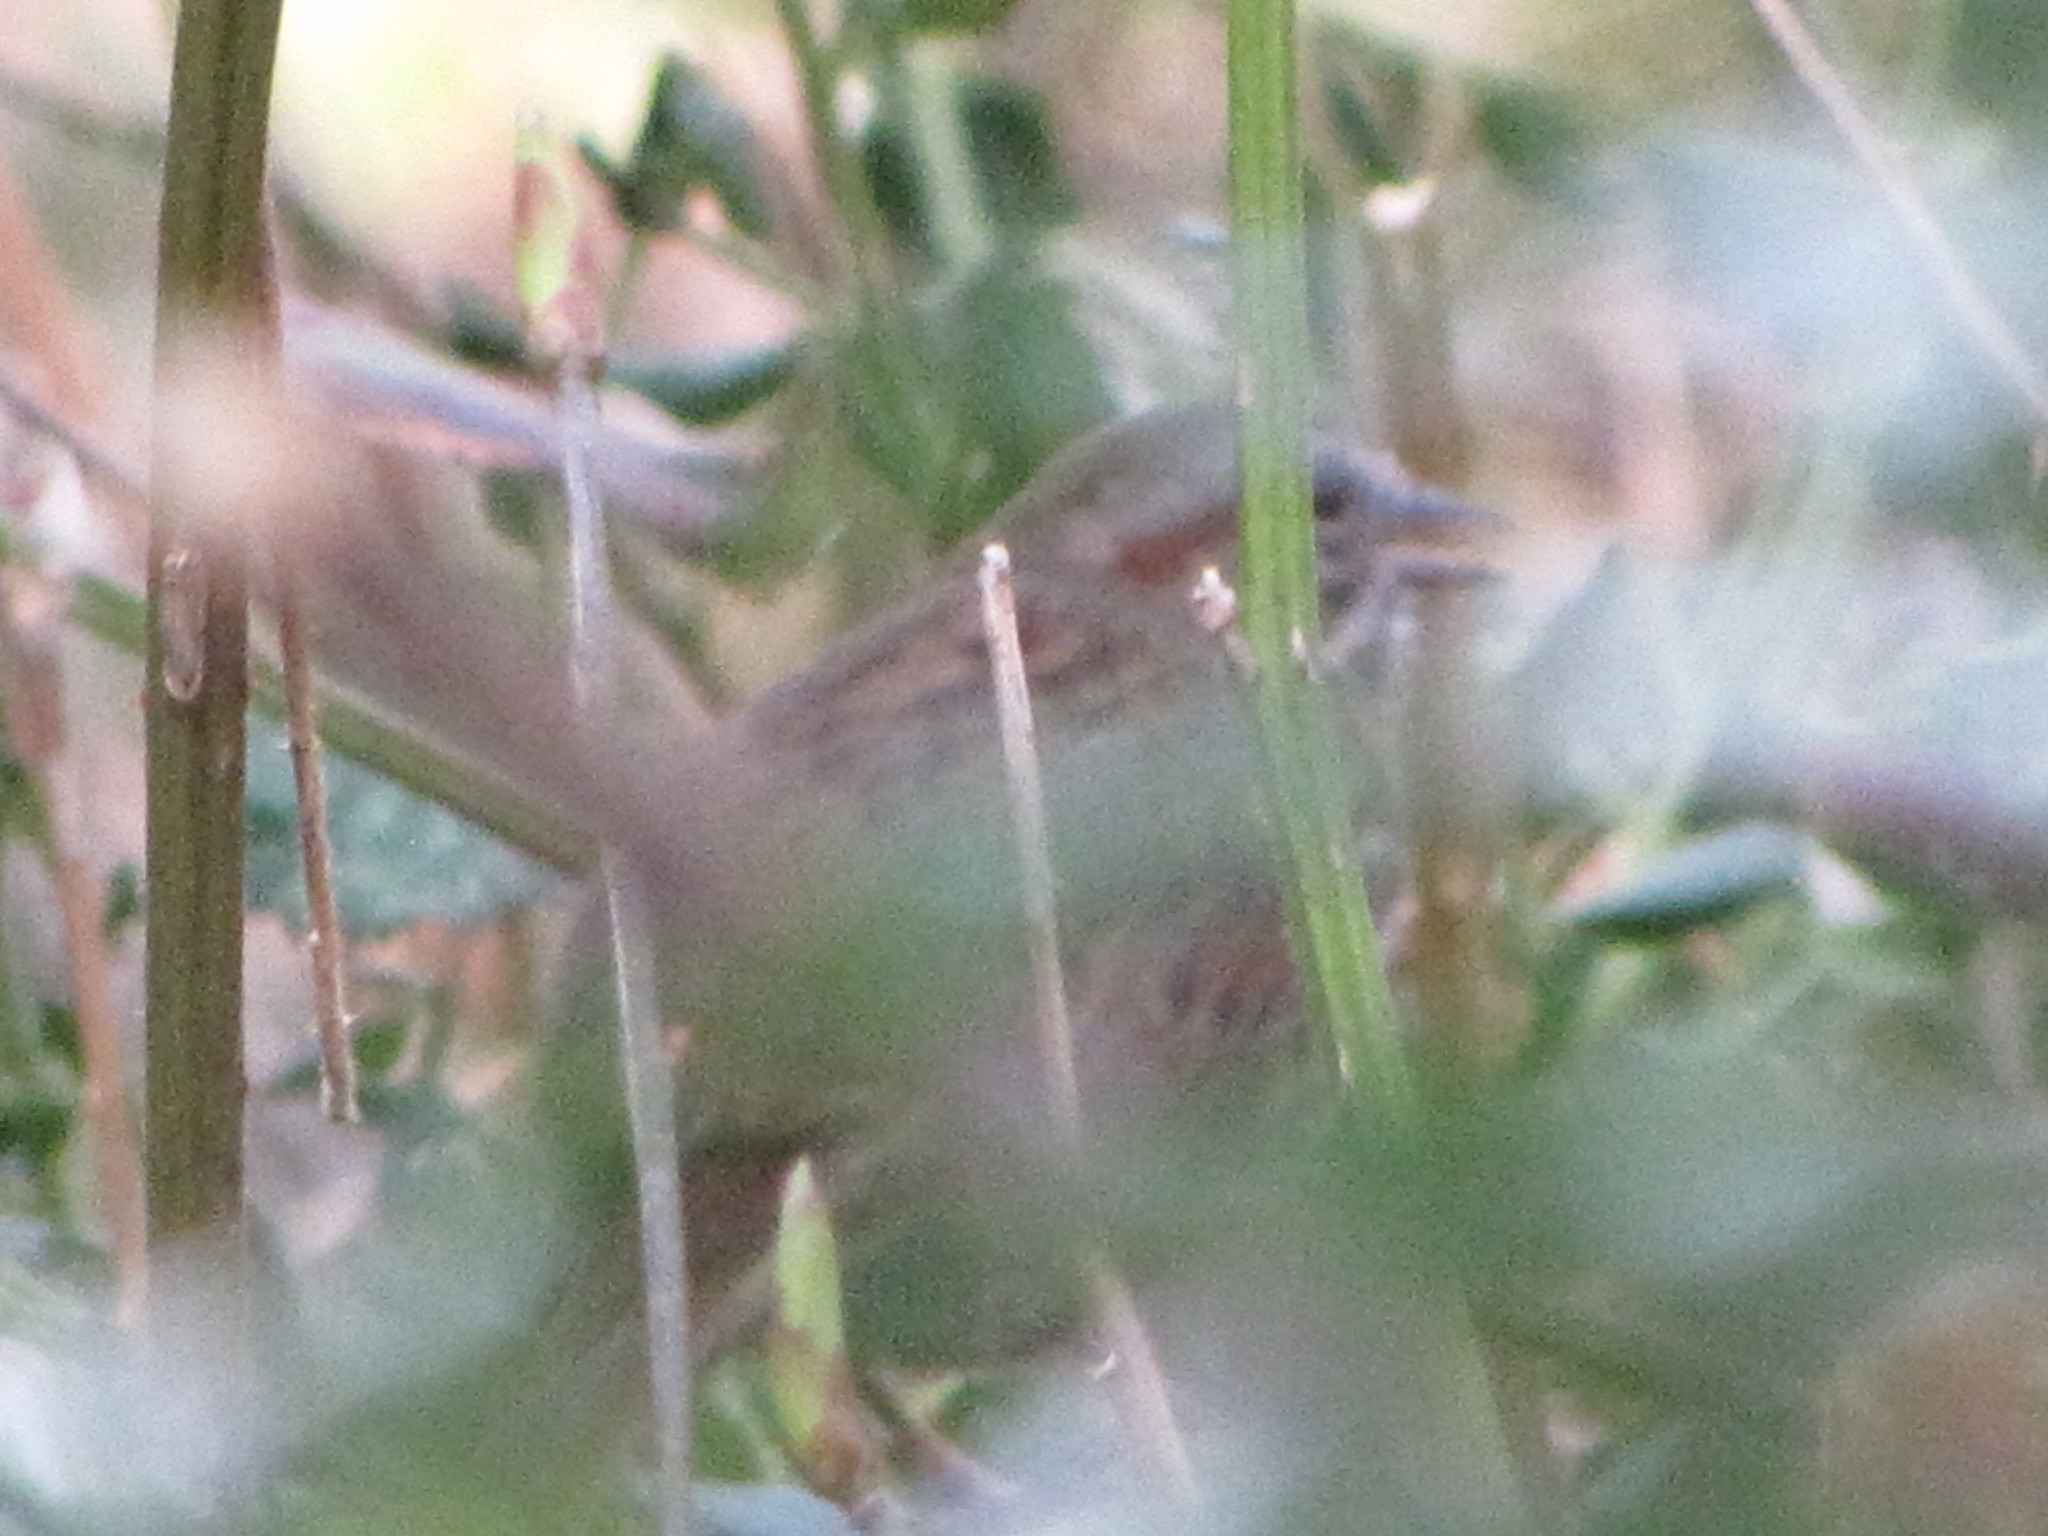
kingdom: Animalia
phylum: Chordata
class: Aves
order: Passeriformes
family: Passerellidae
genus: Melospiza
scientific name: Melospiza melodia
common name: Song sparrow
